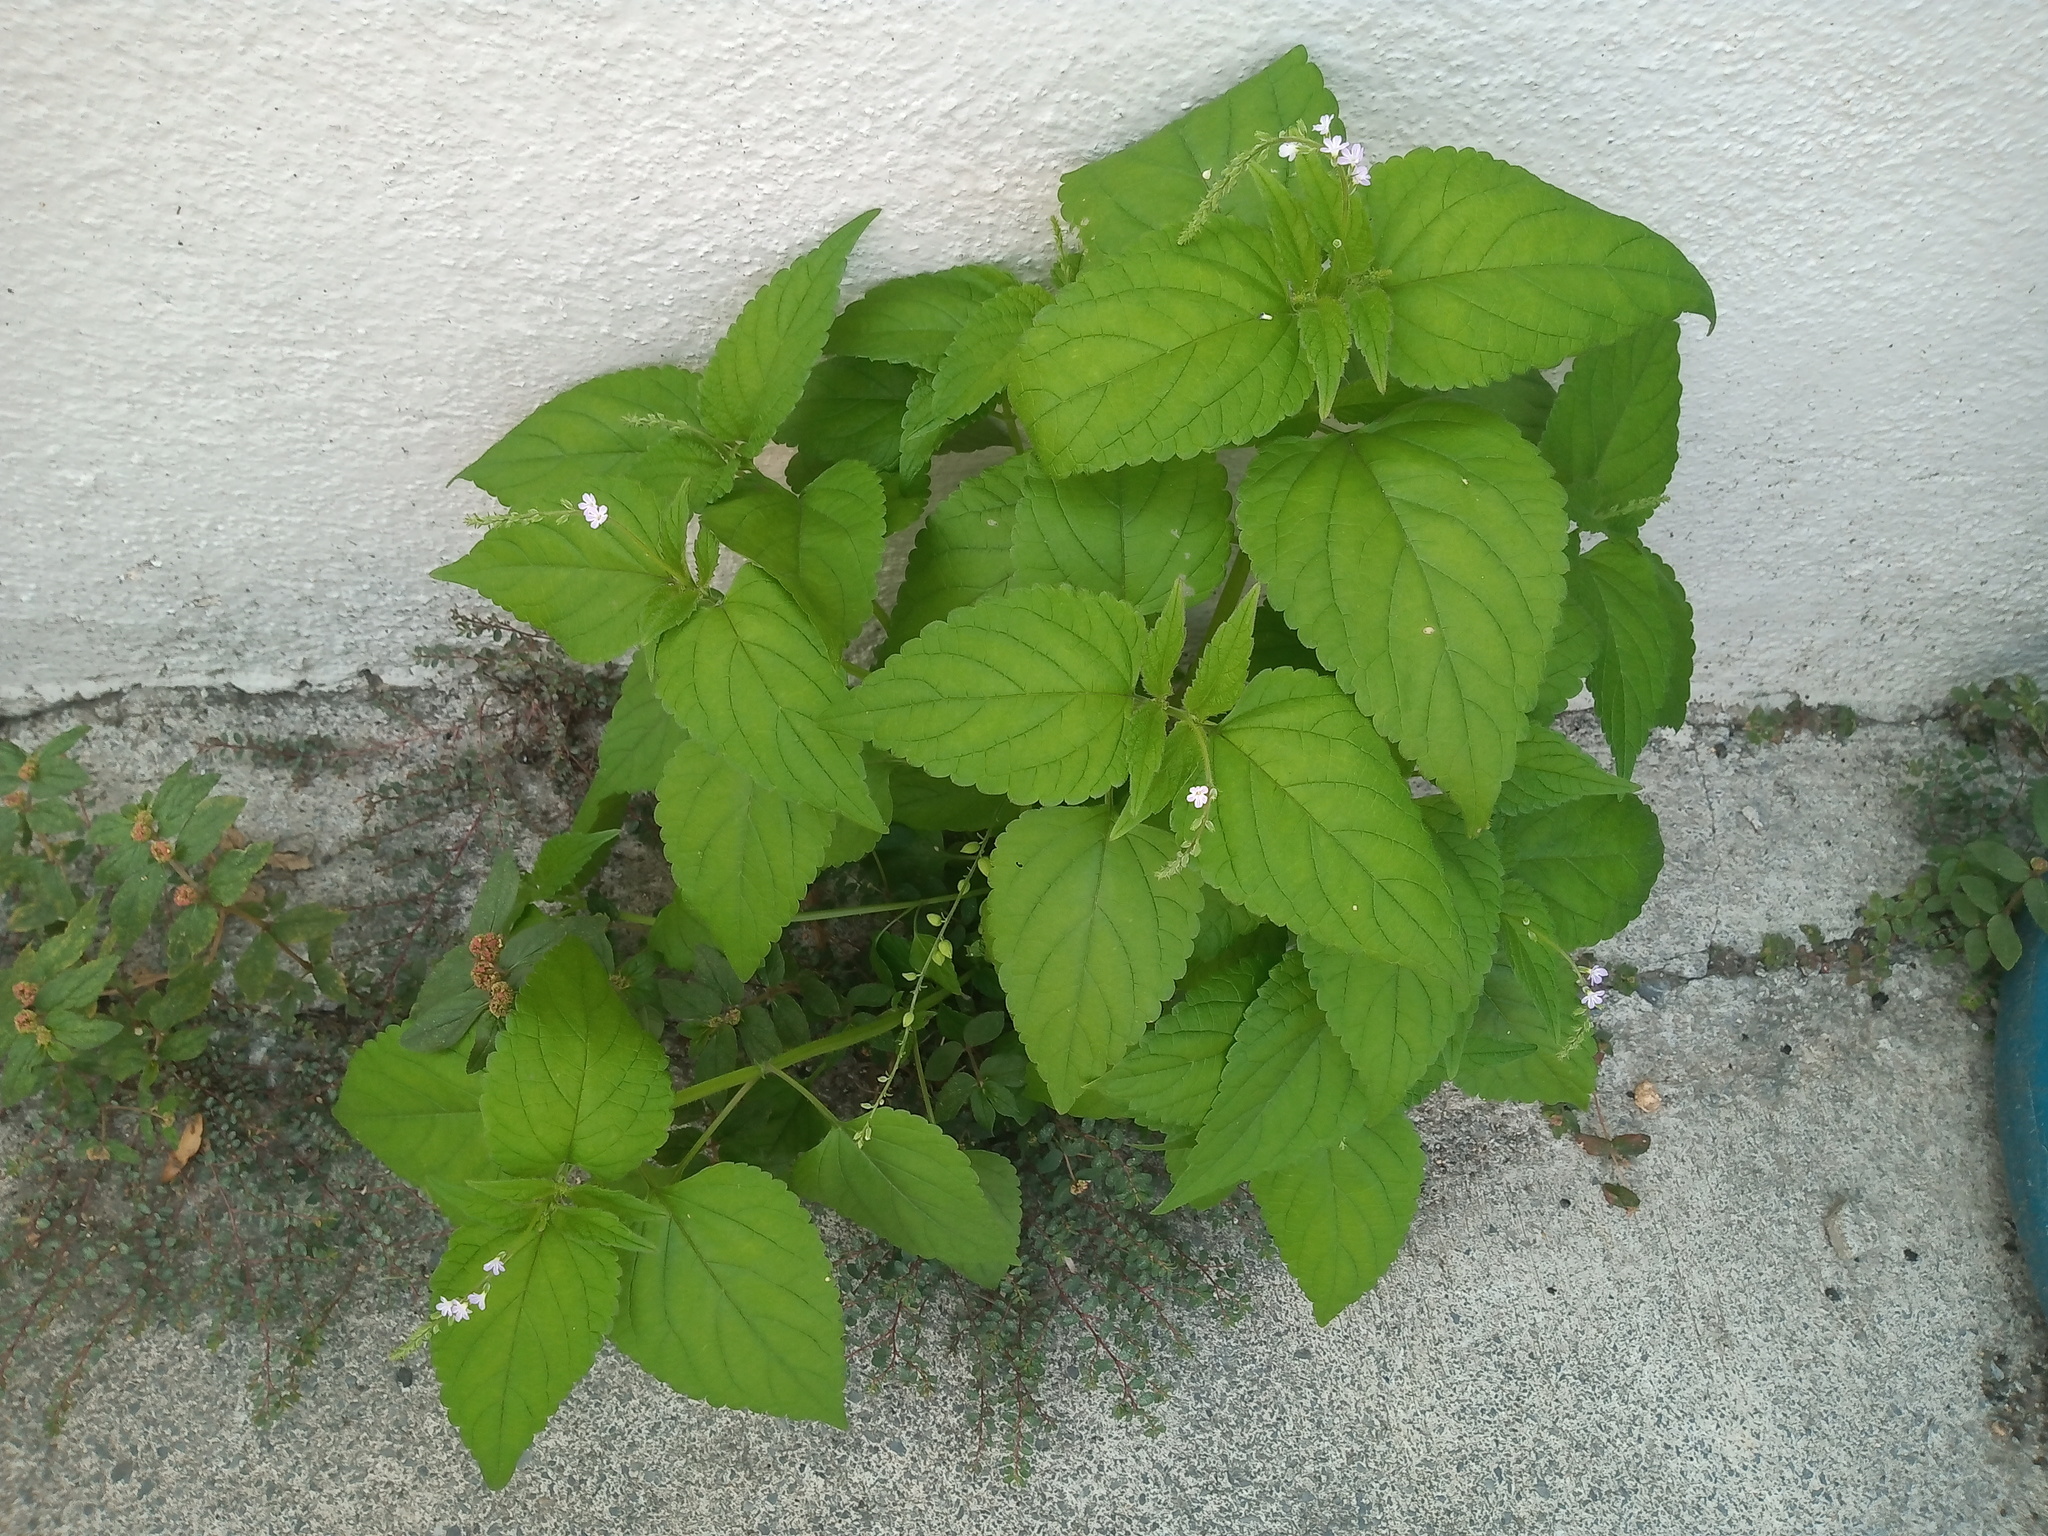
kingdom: Plantae
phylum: Tracheophyta
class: Magnoliopsida
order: Lamiales
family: Verbenaceae
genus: Priva
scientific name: Priva lappulacea
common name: Fasten-'pon-coat
